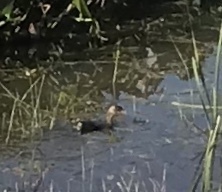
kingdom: Animalia
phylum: Chordata
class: Aves
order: Podicipediformes
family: Podicipedidae
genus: Podilymbus
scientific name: Podilymbus podiceps
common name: Pied-billed grebe
